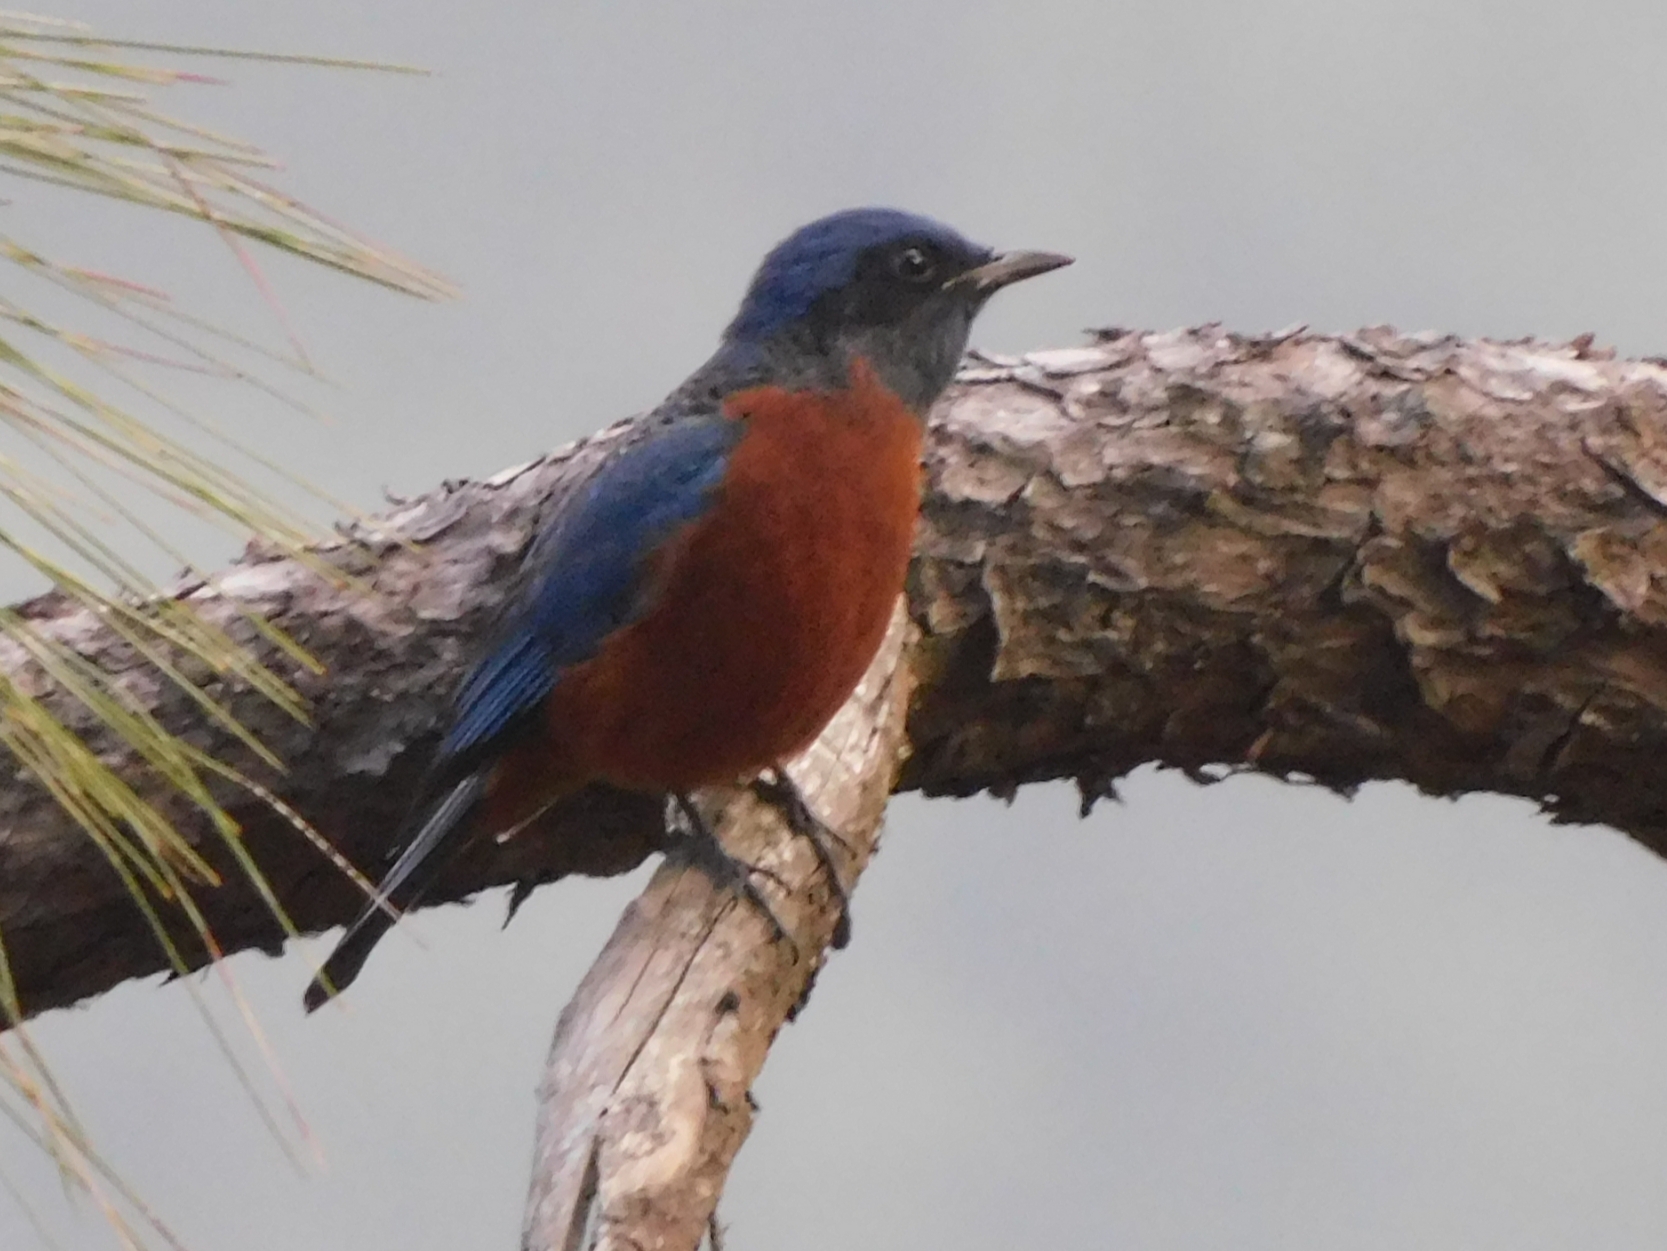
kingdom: Animalia
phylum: Chordata
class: Aves
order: Passeriformes
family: Muscicapidae
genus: Monticola
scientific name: Monticola rufiventris
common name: Chestnut-bellied rock thrush
